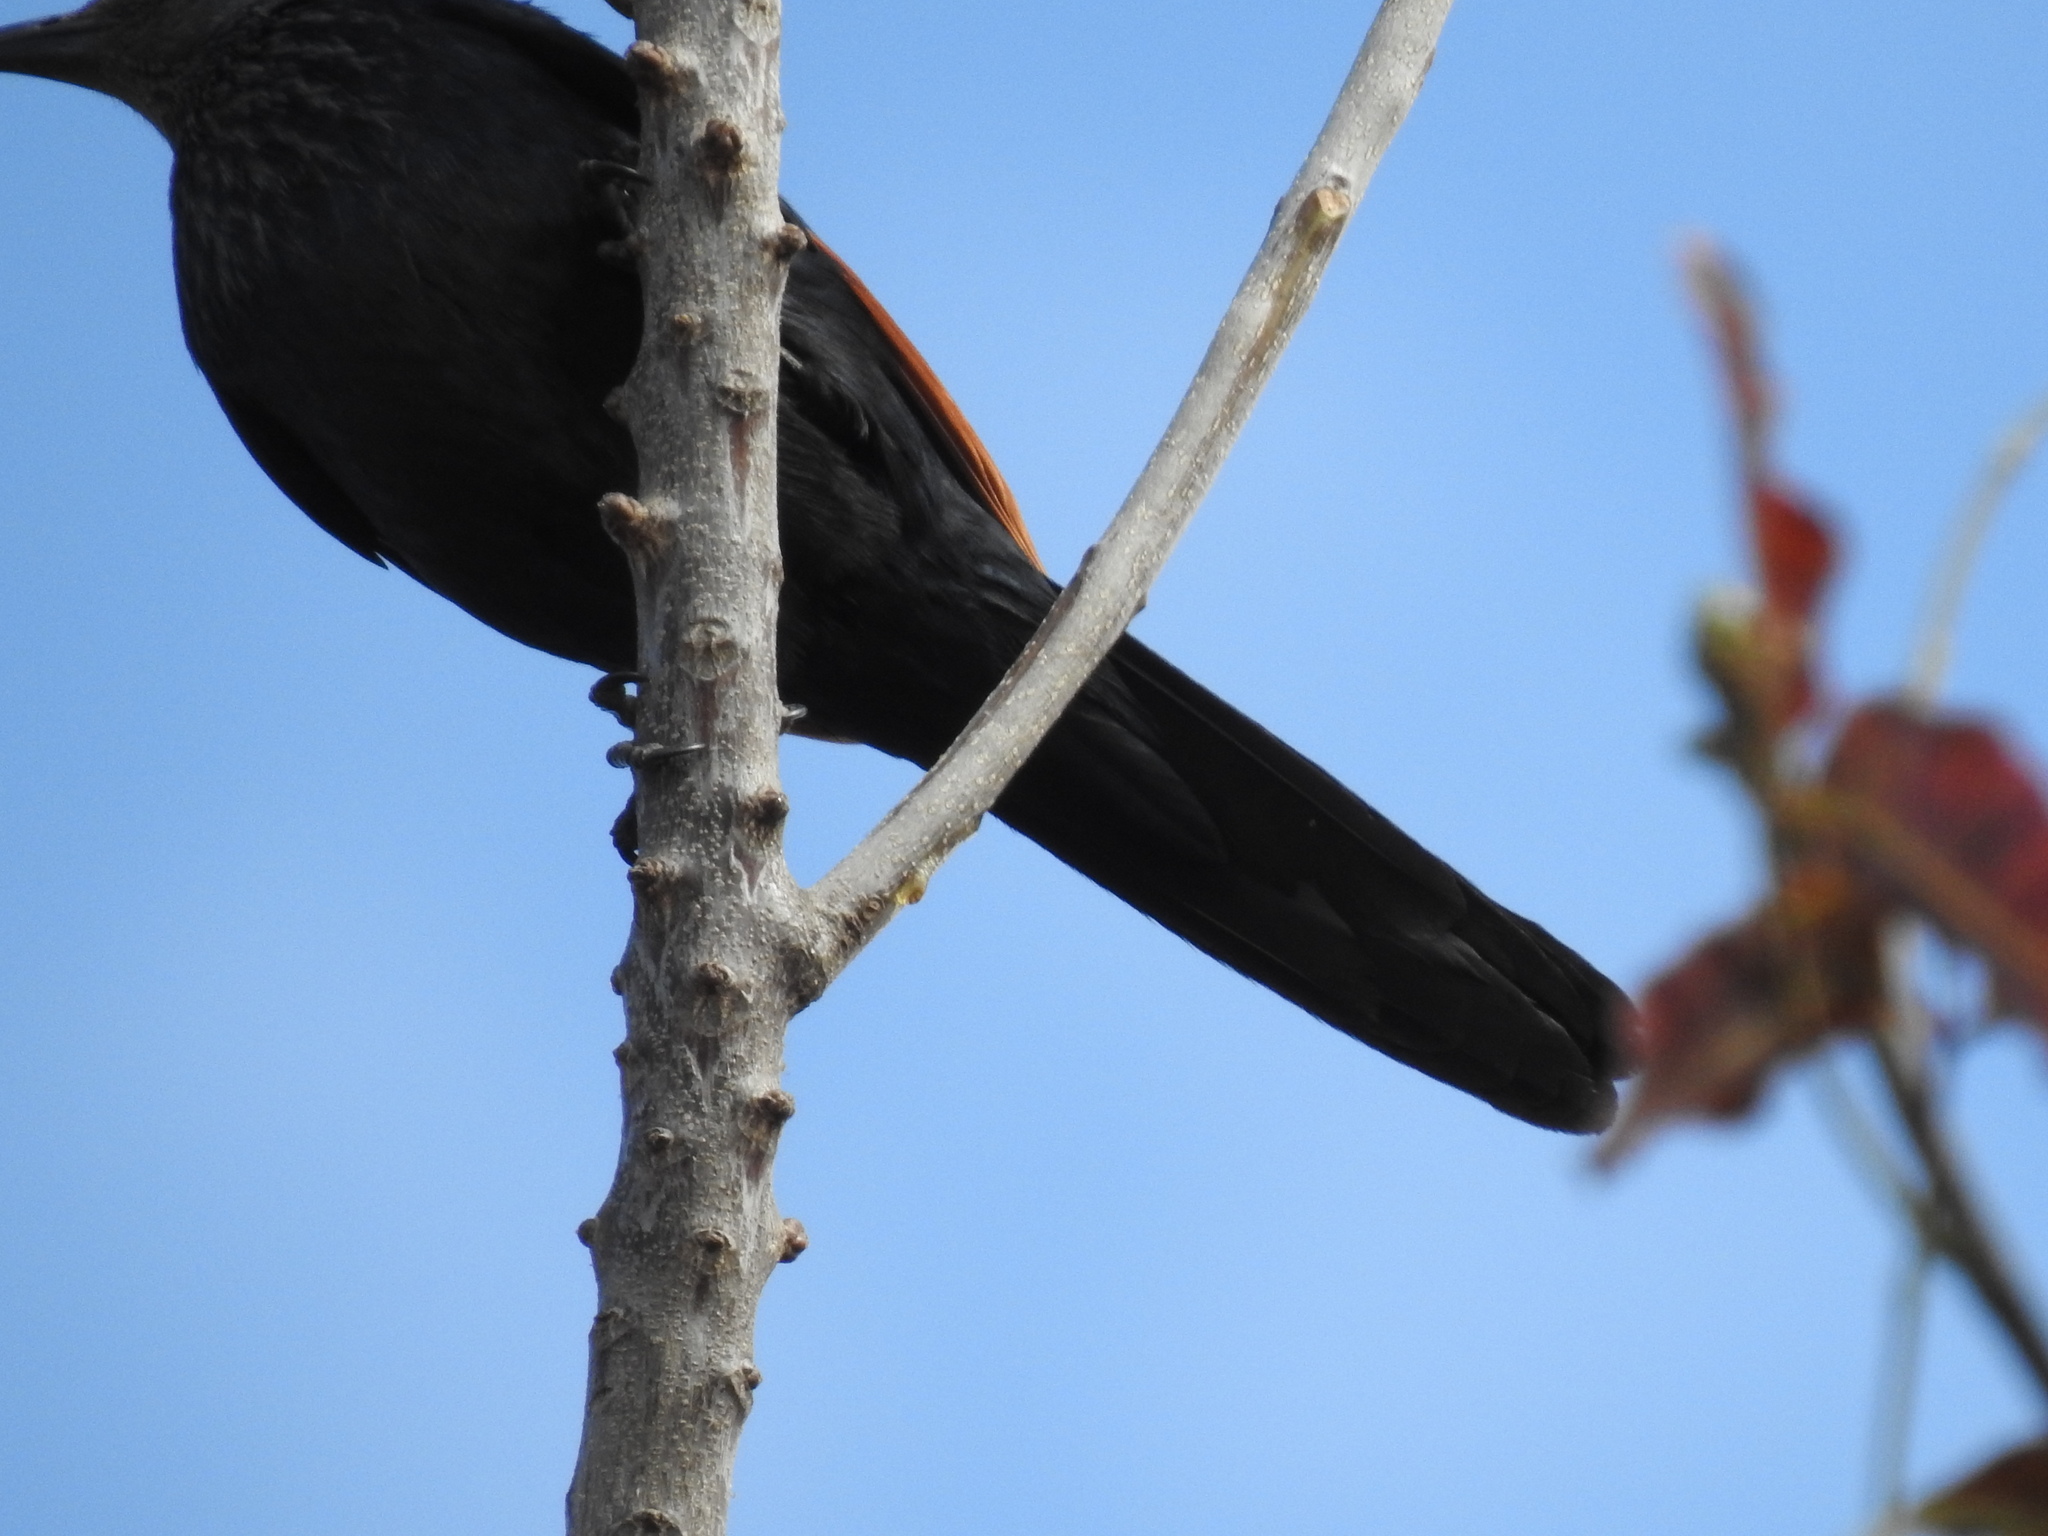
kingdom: Animalia
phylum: Chordata
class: Aves
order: Passeriformes
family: Sturnidae
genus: Onychognathus
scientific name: Onychognathus morio
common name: Red-winged starling
